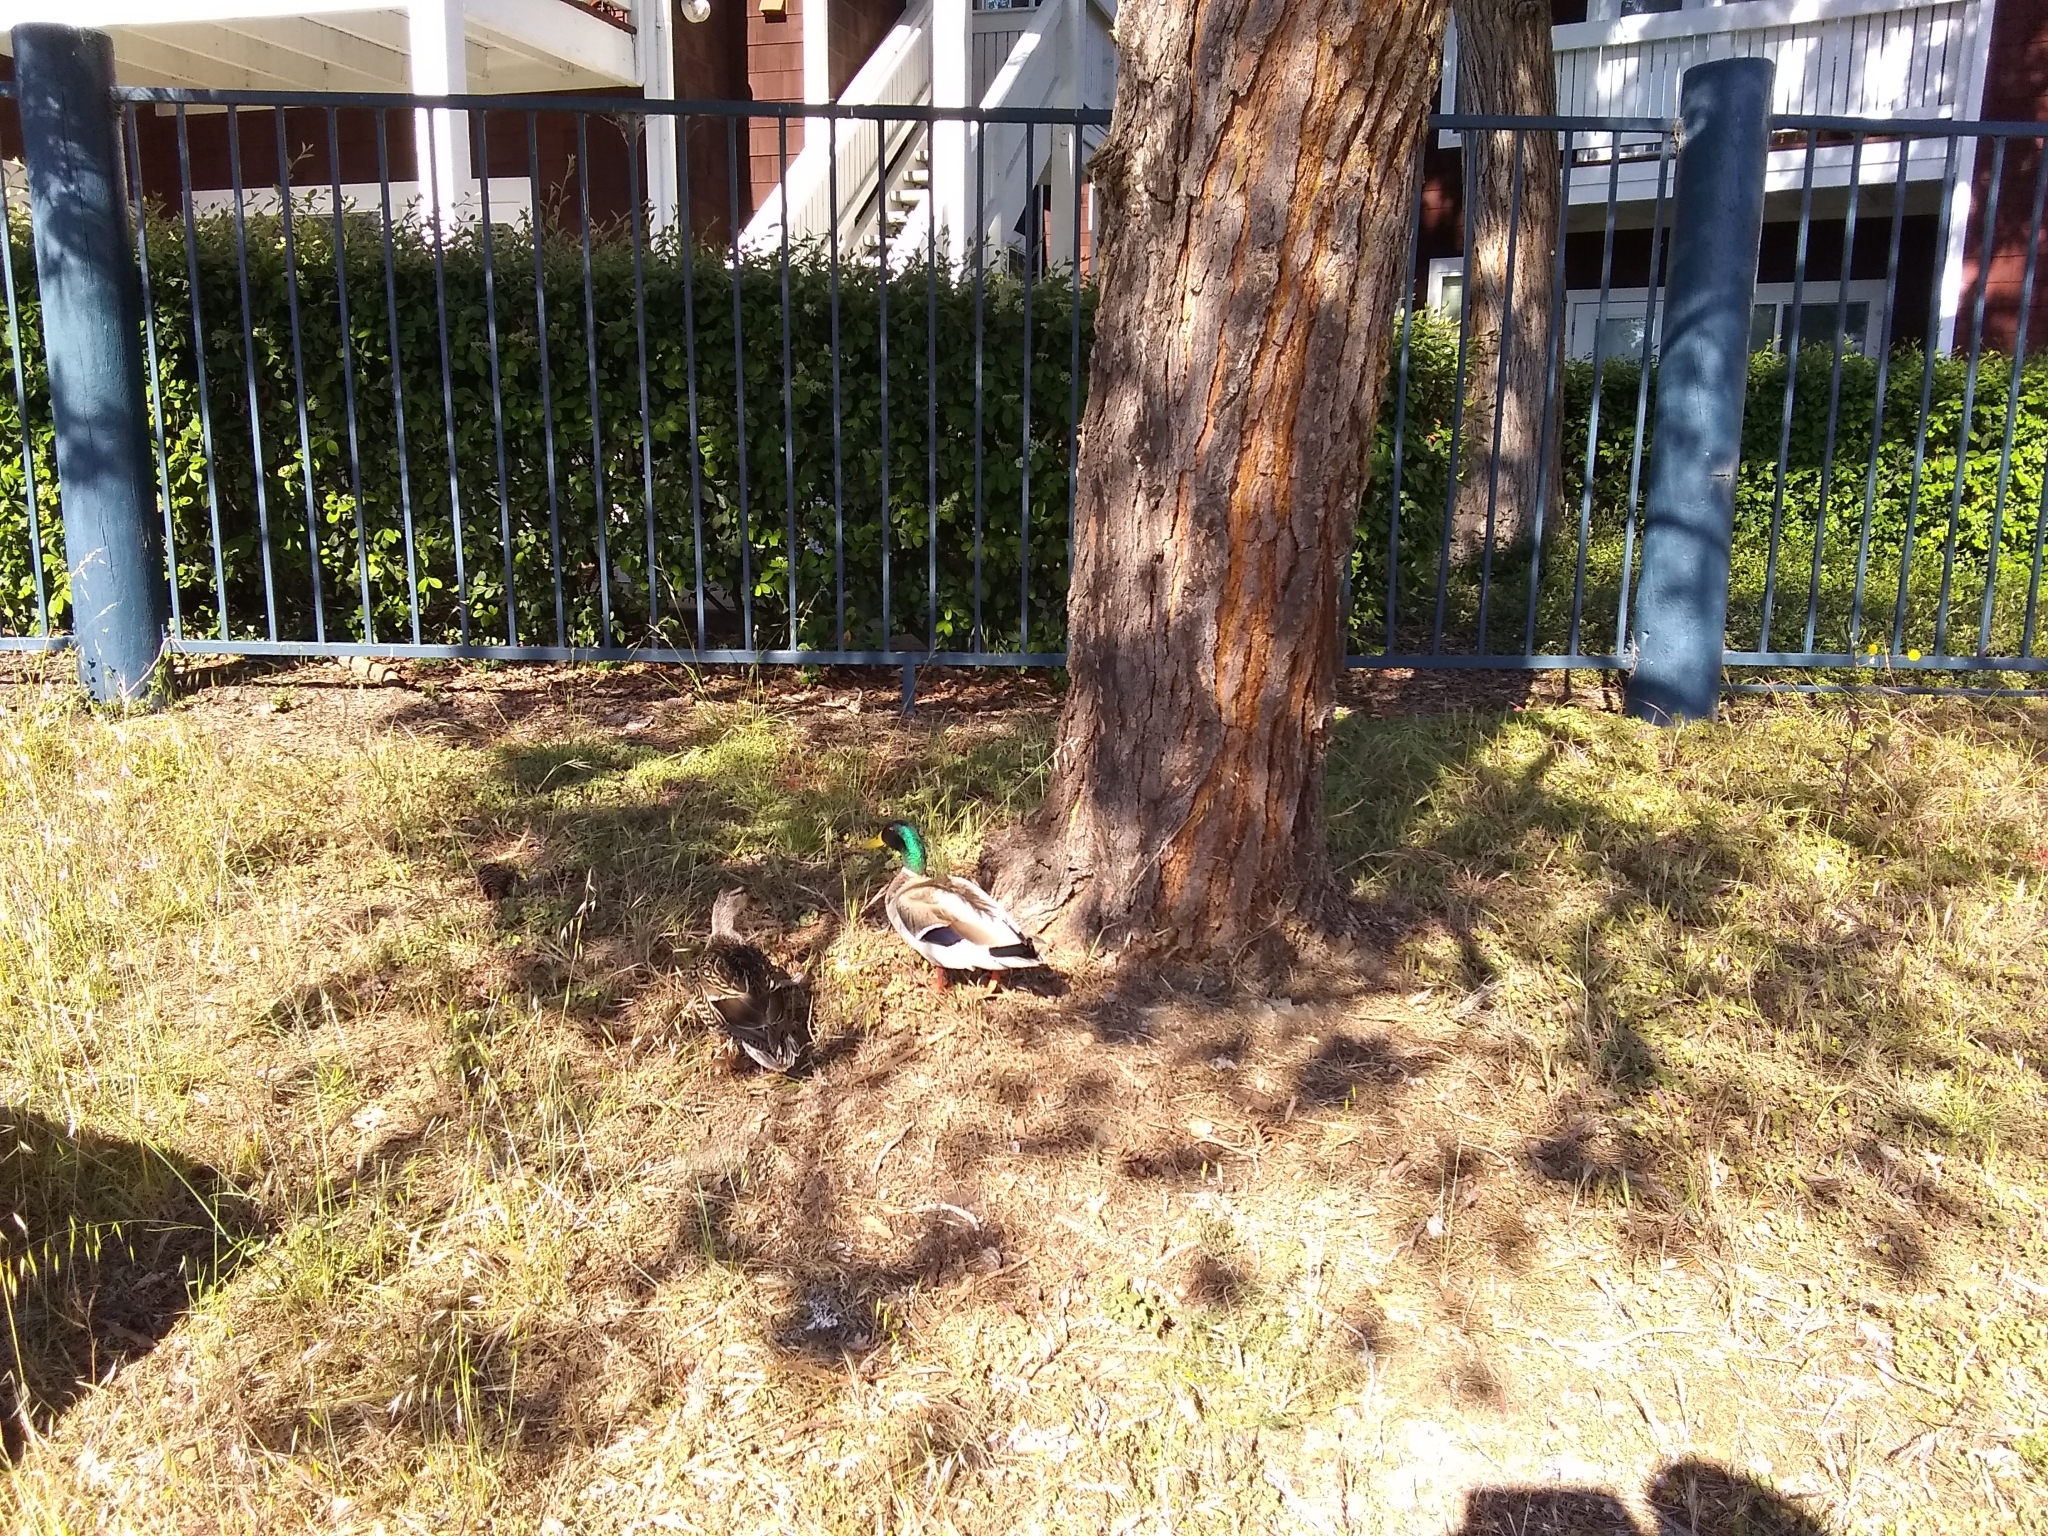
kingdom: Animalia
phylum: Chordata
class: Aves
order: Anseriformes
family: Anatidae
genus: Anas
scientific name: Anas platyrhynchos
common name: Mallard
